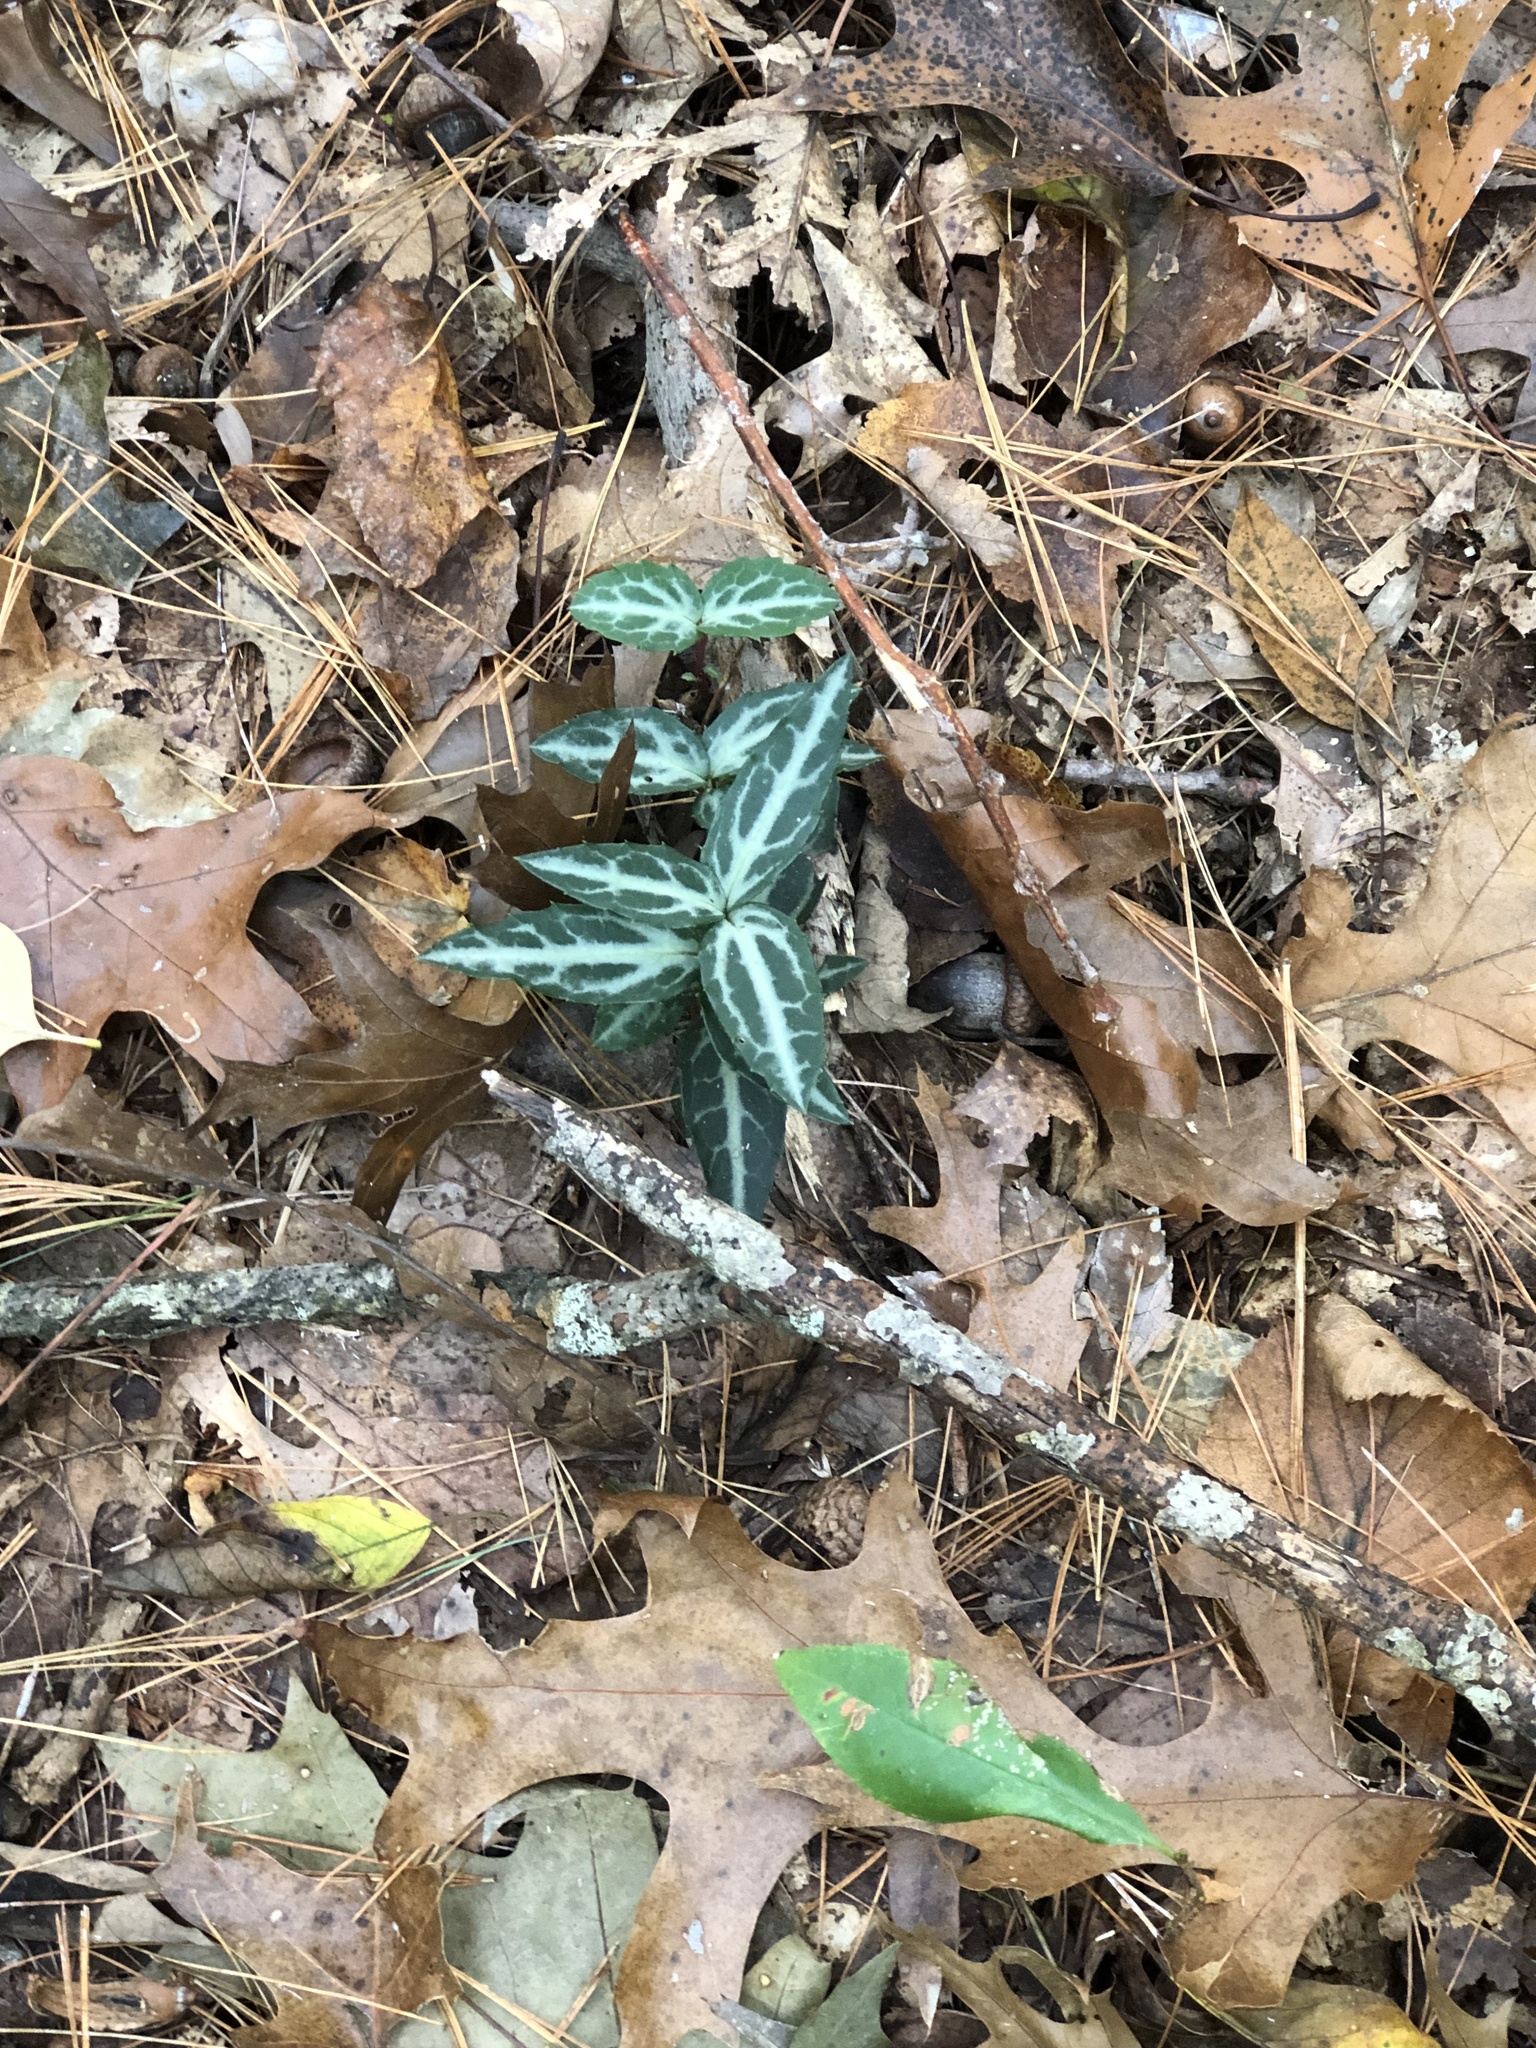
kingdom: Plantae
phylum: Tracheophyta
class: Magnoliopsida
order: Ericales
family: Ericaceae
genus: Chimaphila
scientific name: Chimaphila maculata
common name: Spotted pipsissewa
